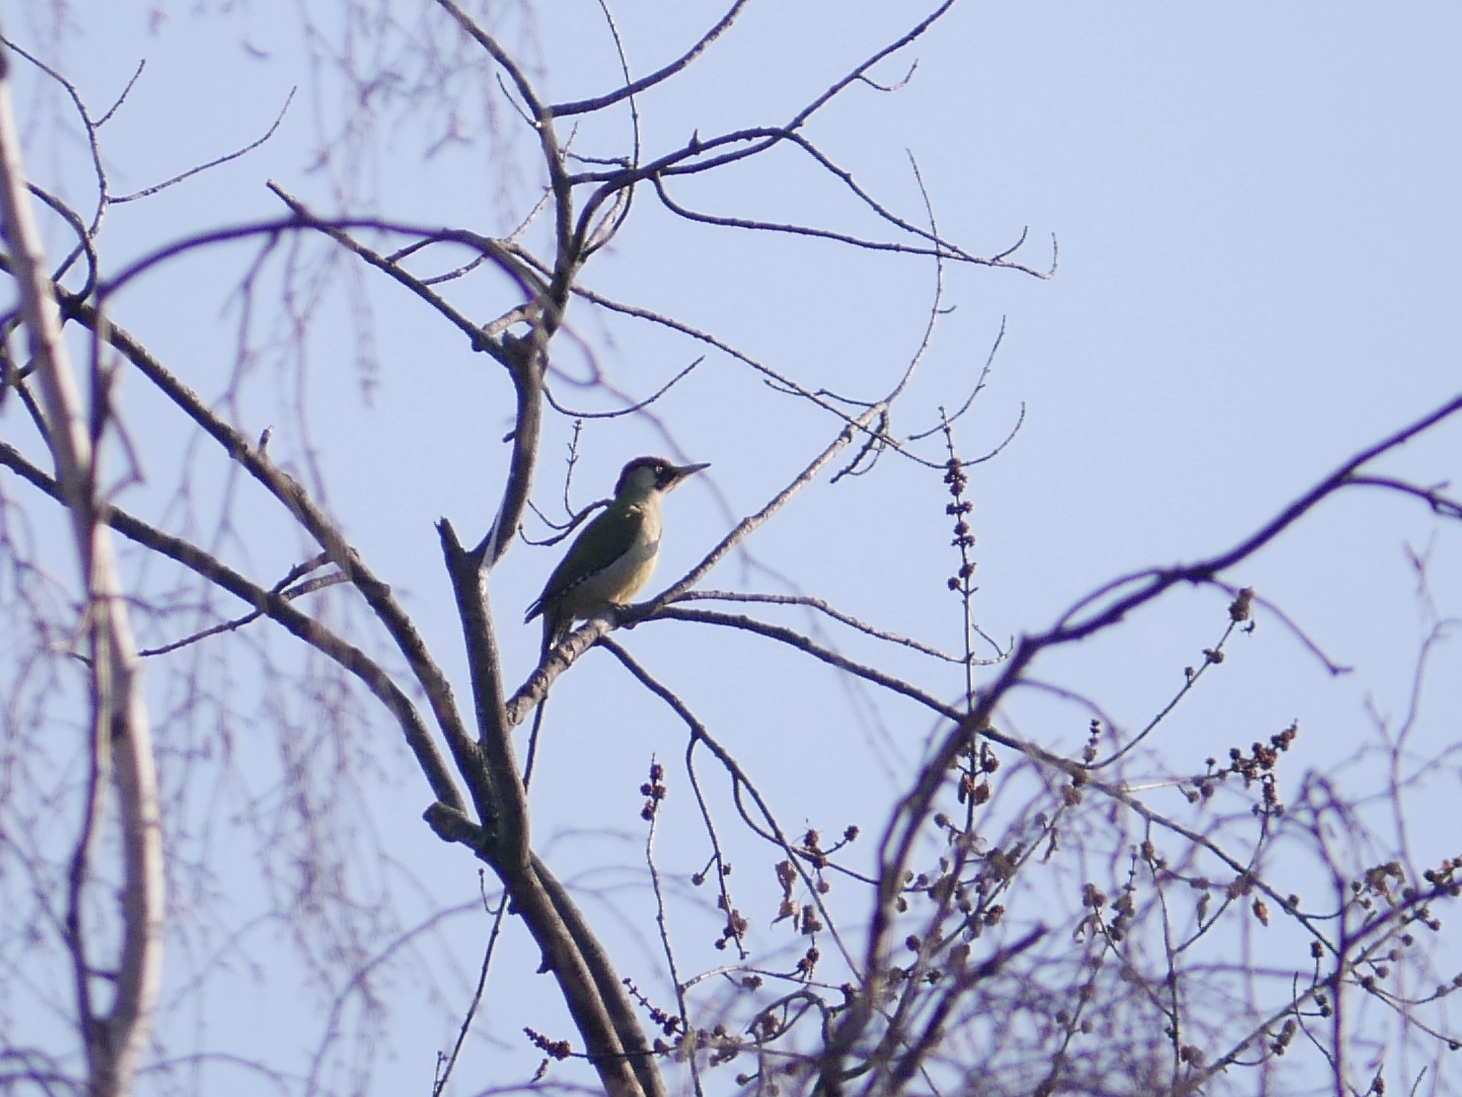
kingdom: Animalia
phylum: Chordata
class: Aves
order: Piciformes
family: Picidae
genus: Picus
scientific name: Picus viridis
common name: European green woodpecker
